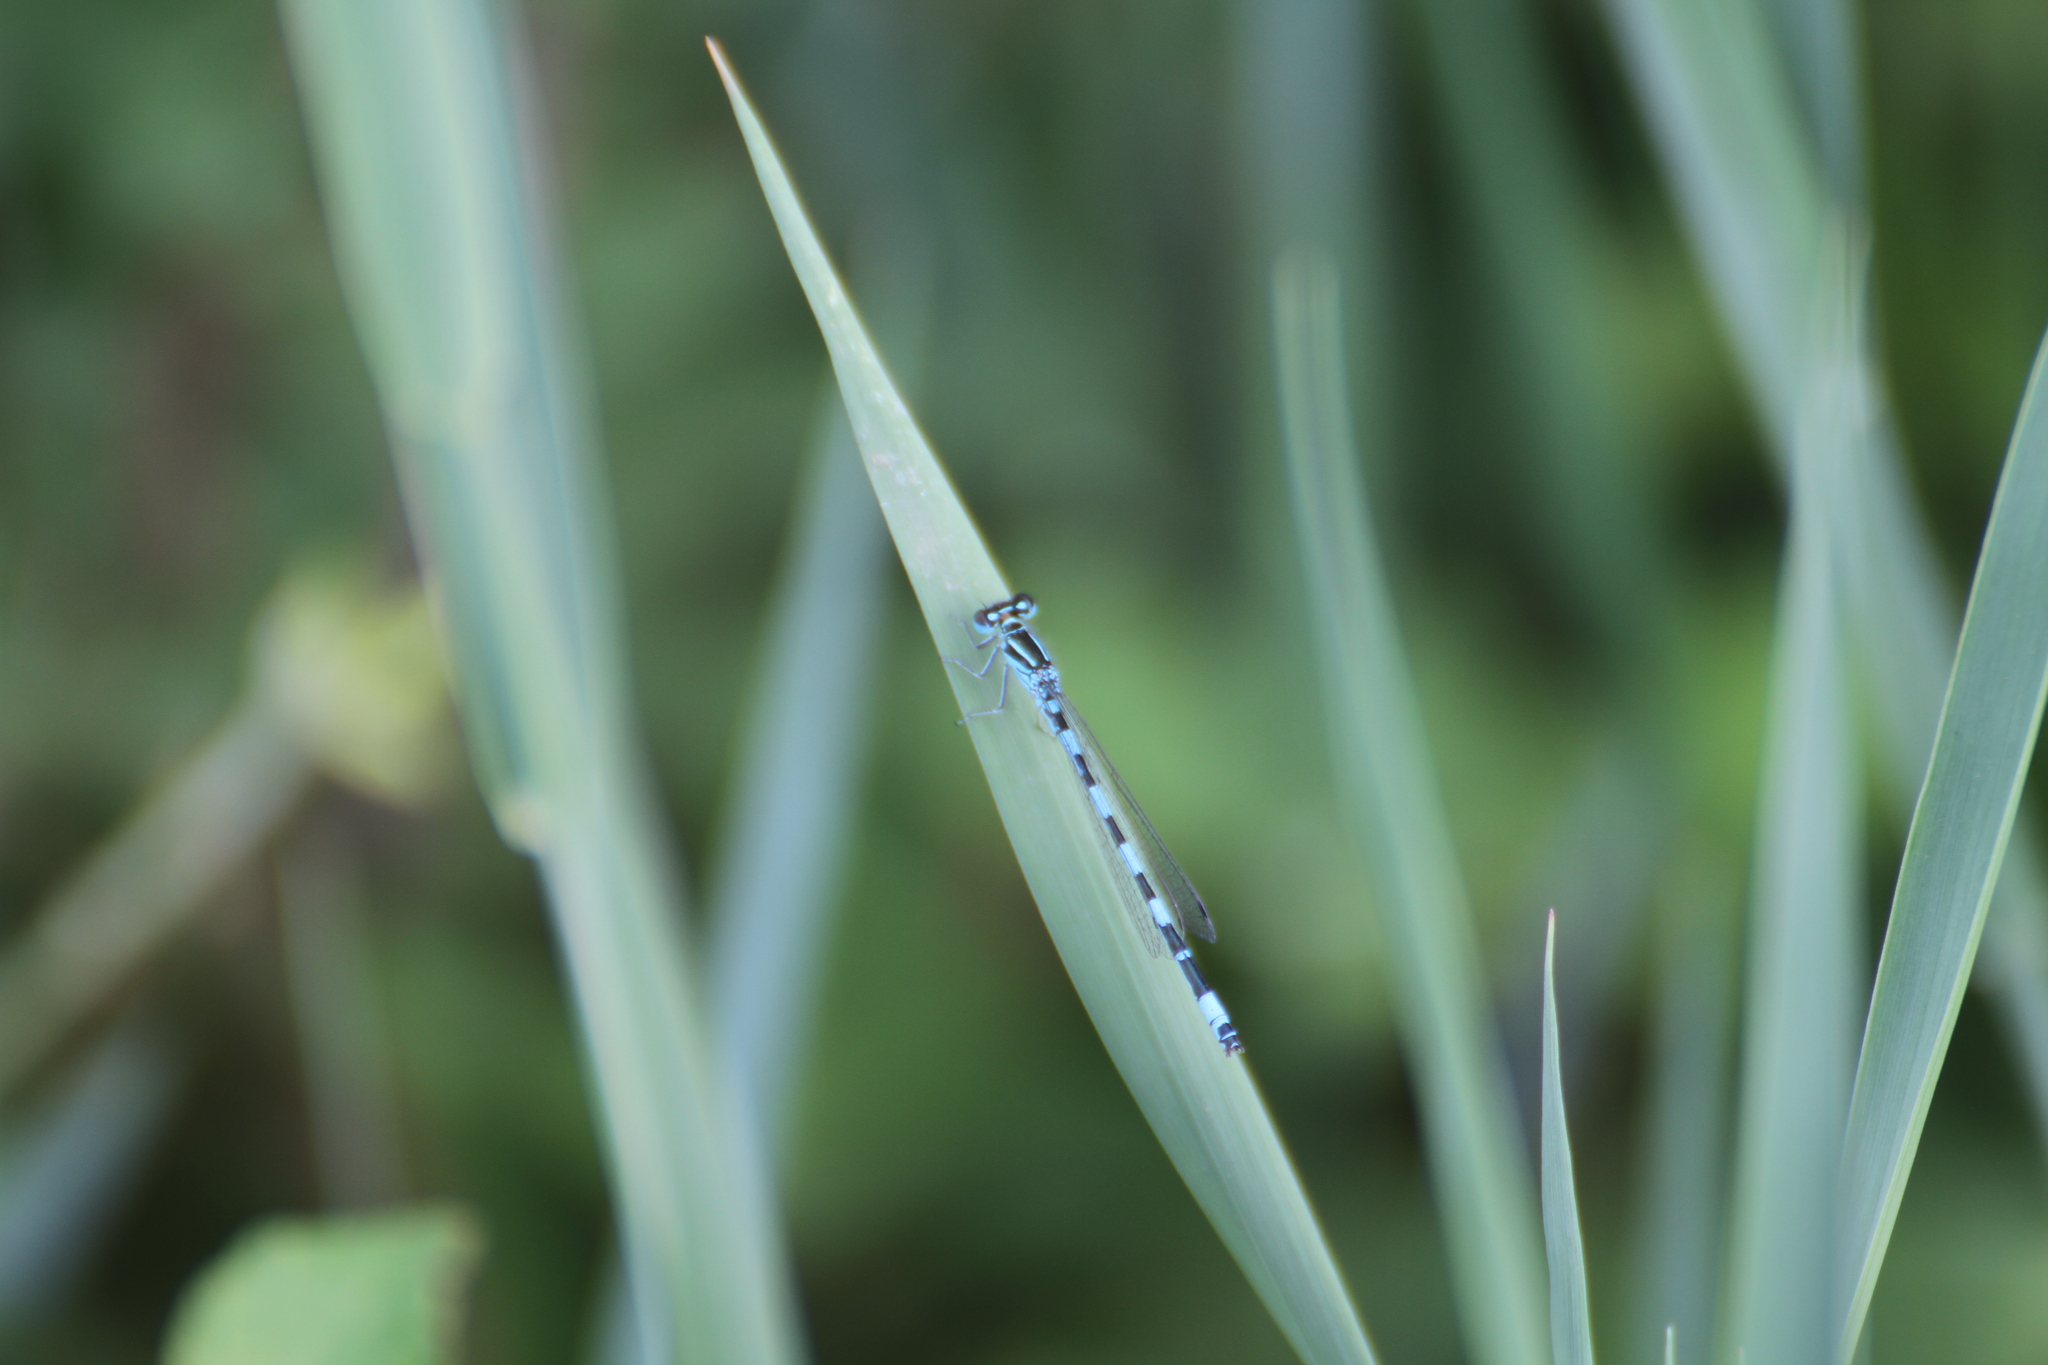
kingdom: Animalia
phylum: Arthropoda
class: Insecta
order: Odonata
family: Coenagrionidae
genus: Coenagrion
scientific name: Coenagrion mercuriale
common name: Southern damselfly
